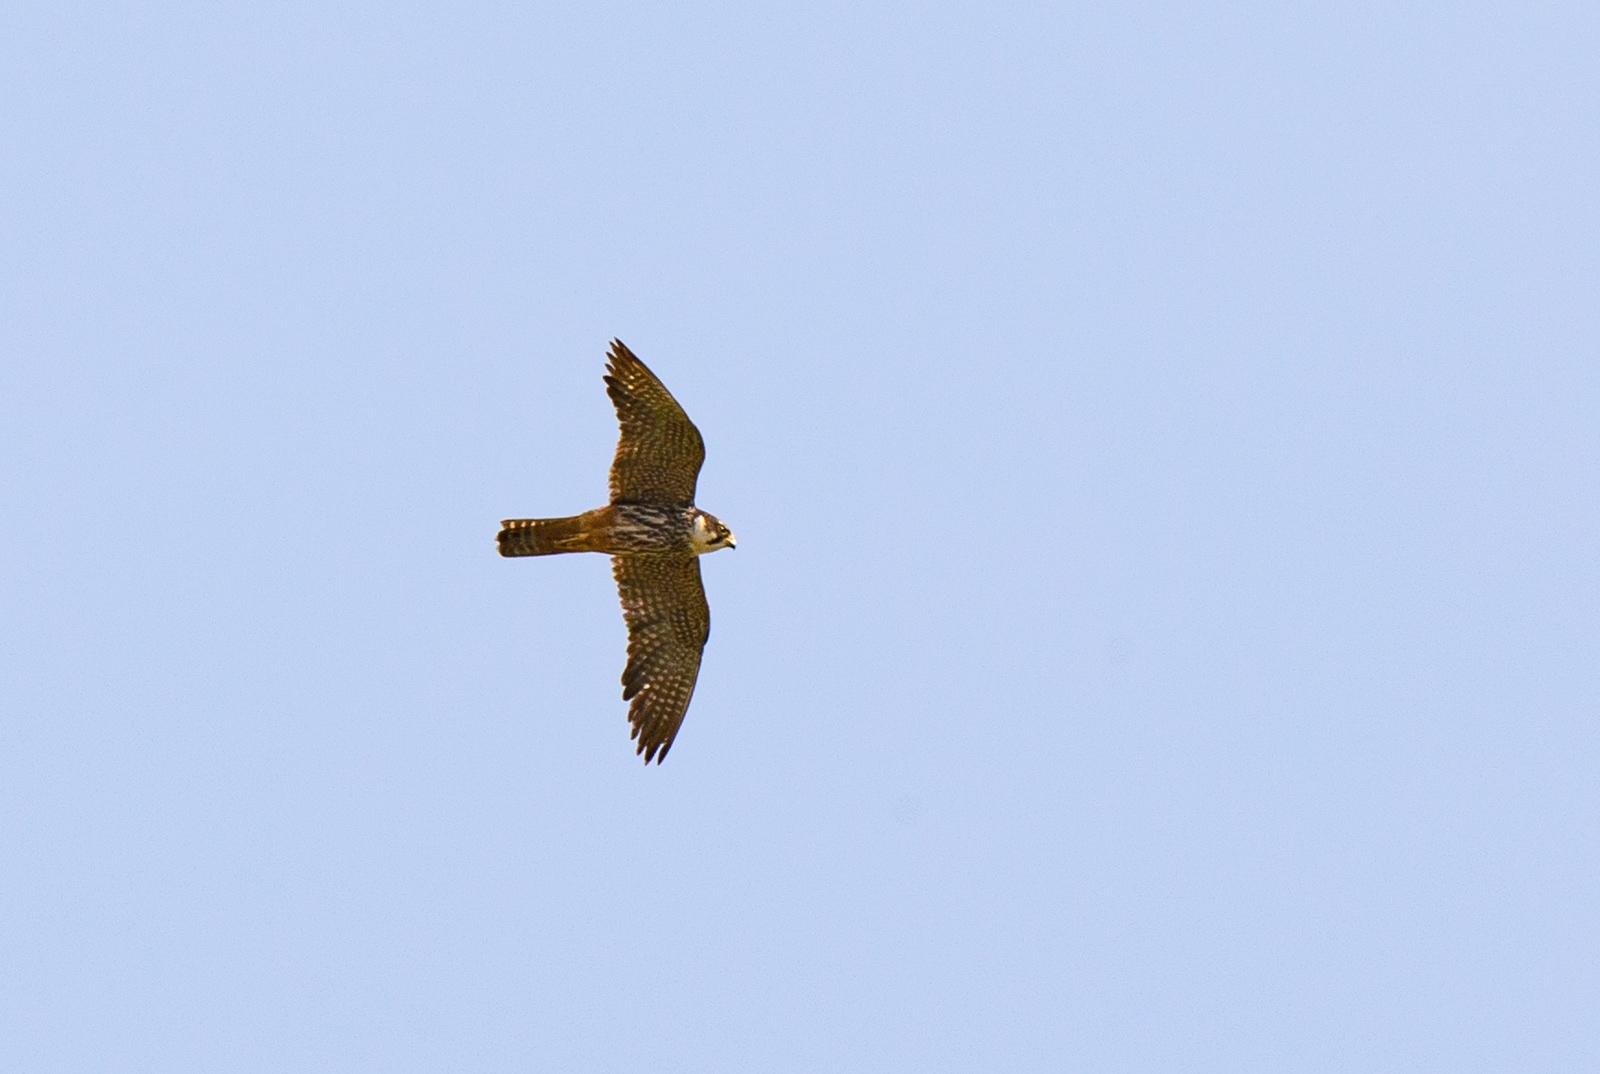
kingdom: Animalia
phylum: Chordata
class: Aves
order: Falconiformes
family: Falconidae
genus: Falco
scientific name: Falco subbuteo
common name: Eurasian hobby
